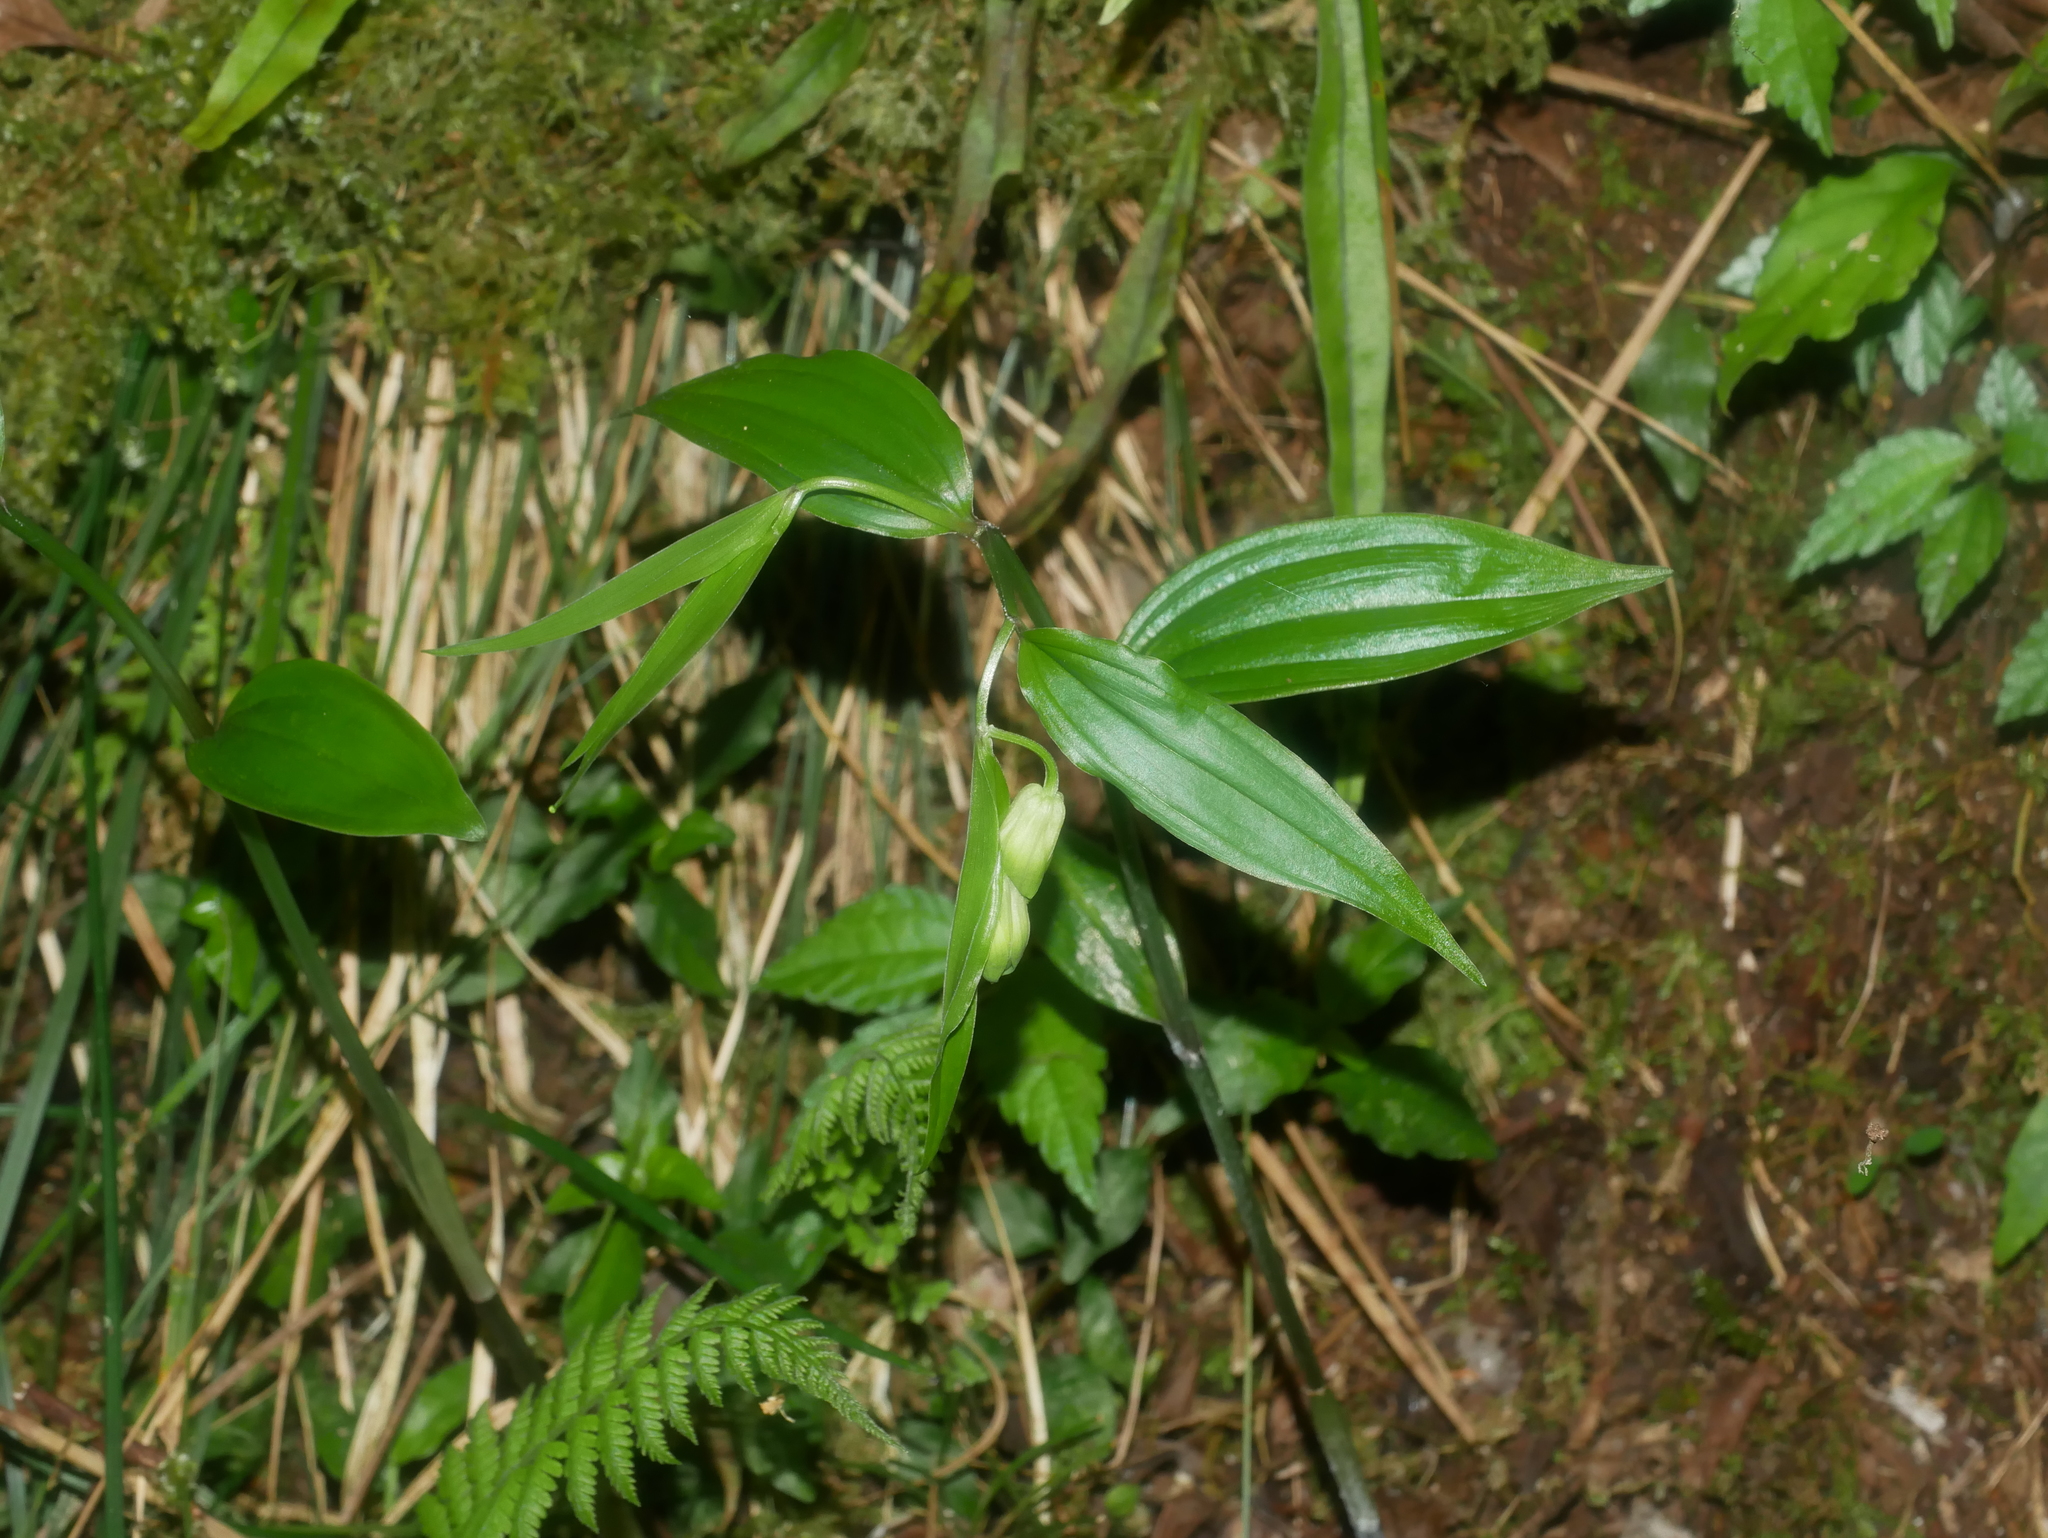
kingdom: Plantae
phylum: Tracheophyta
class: Liliopsida
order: Liliales
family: Colchicaceae
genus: Disporum
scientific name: Disporum sessile
